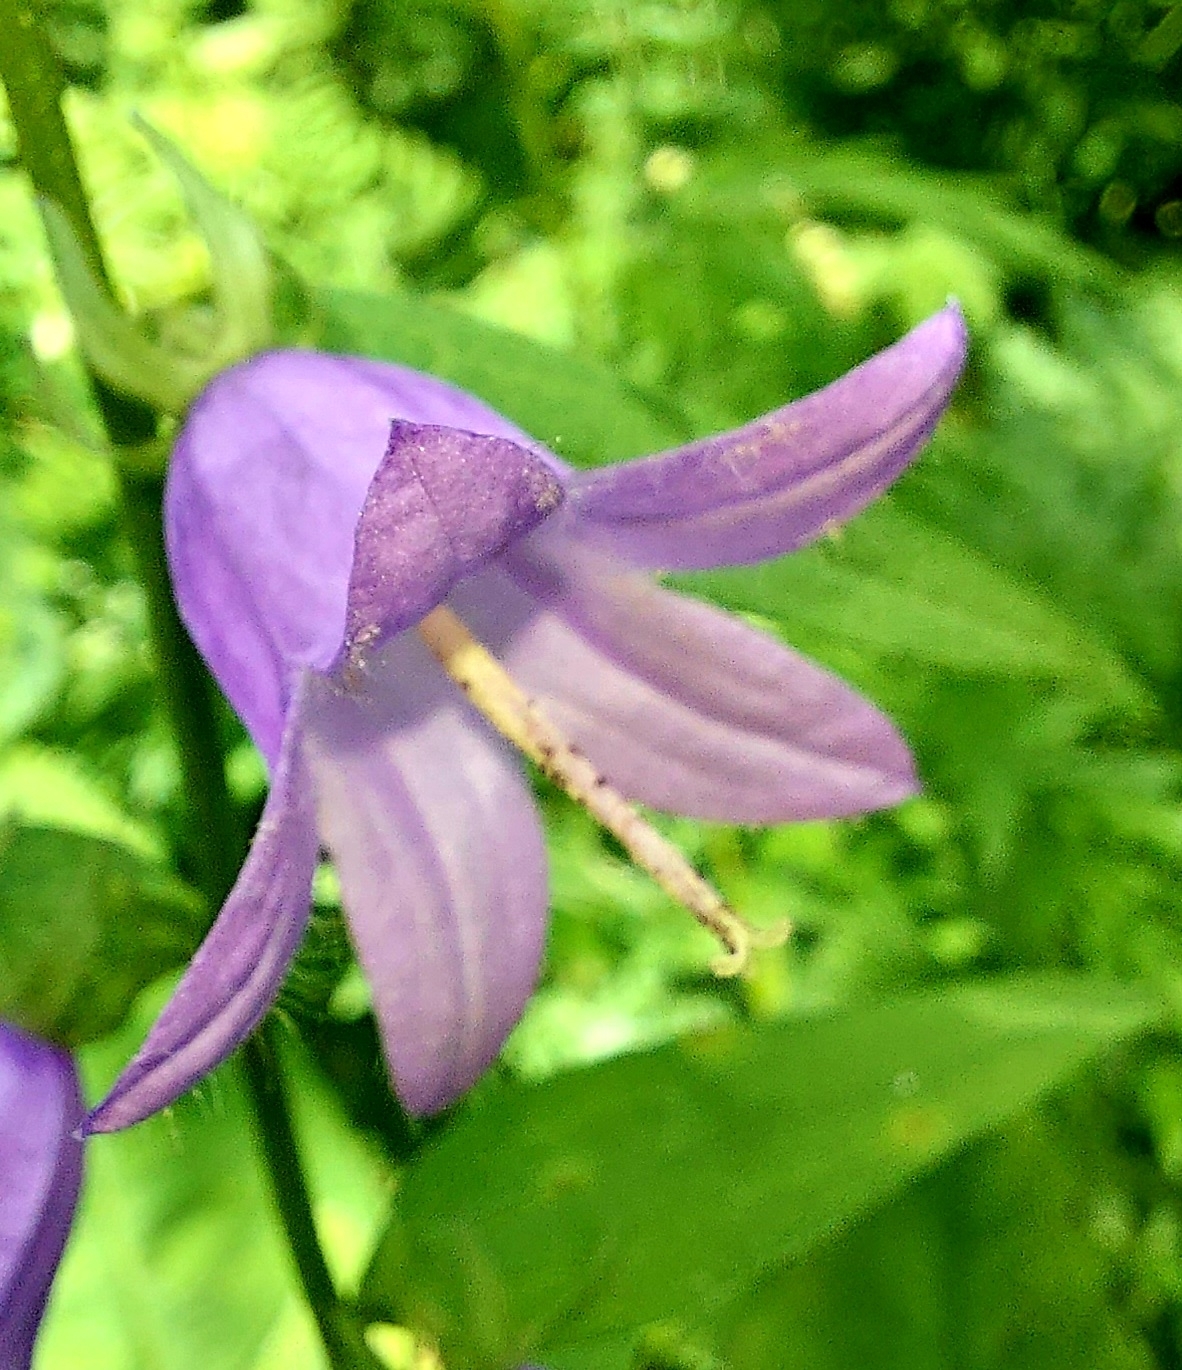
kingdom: Plantae
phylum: Tracheophyta
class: Magnoliopsida
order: Asterales
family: Campanulaceae
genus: Campanula
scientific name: Campanula rapunculoides
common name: Creeping bellflower
